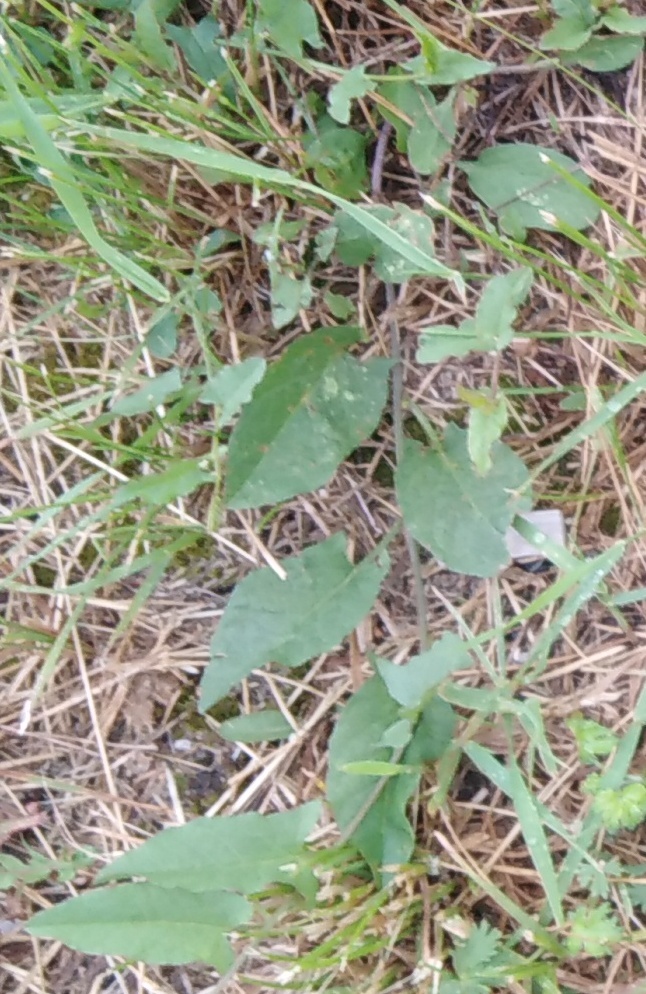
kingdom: Plantae
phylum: Tracheophyta
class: Magnoliopsida
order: Solanales
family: Solanaceae
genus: Solanum
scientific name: Solanum dulcamara
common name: Climbing nightshade
